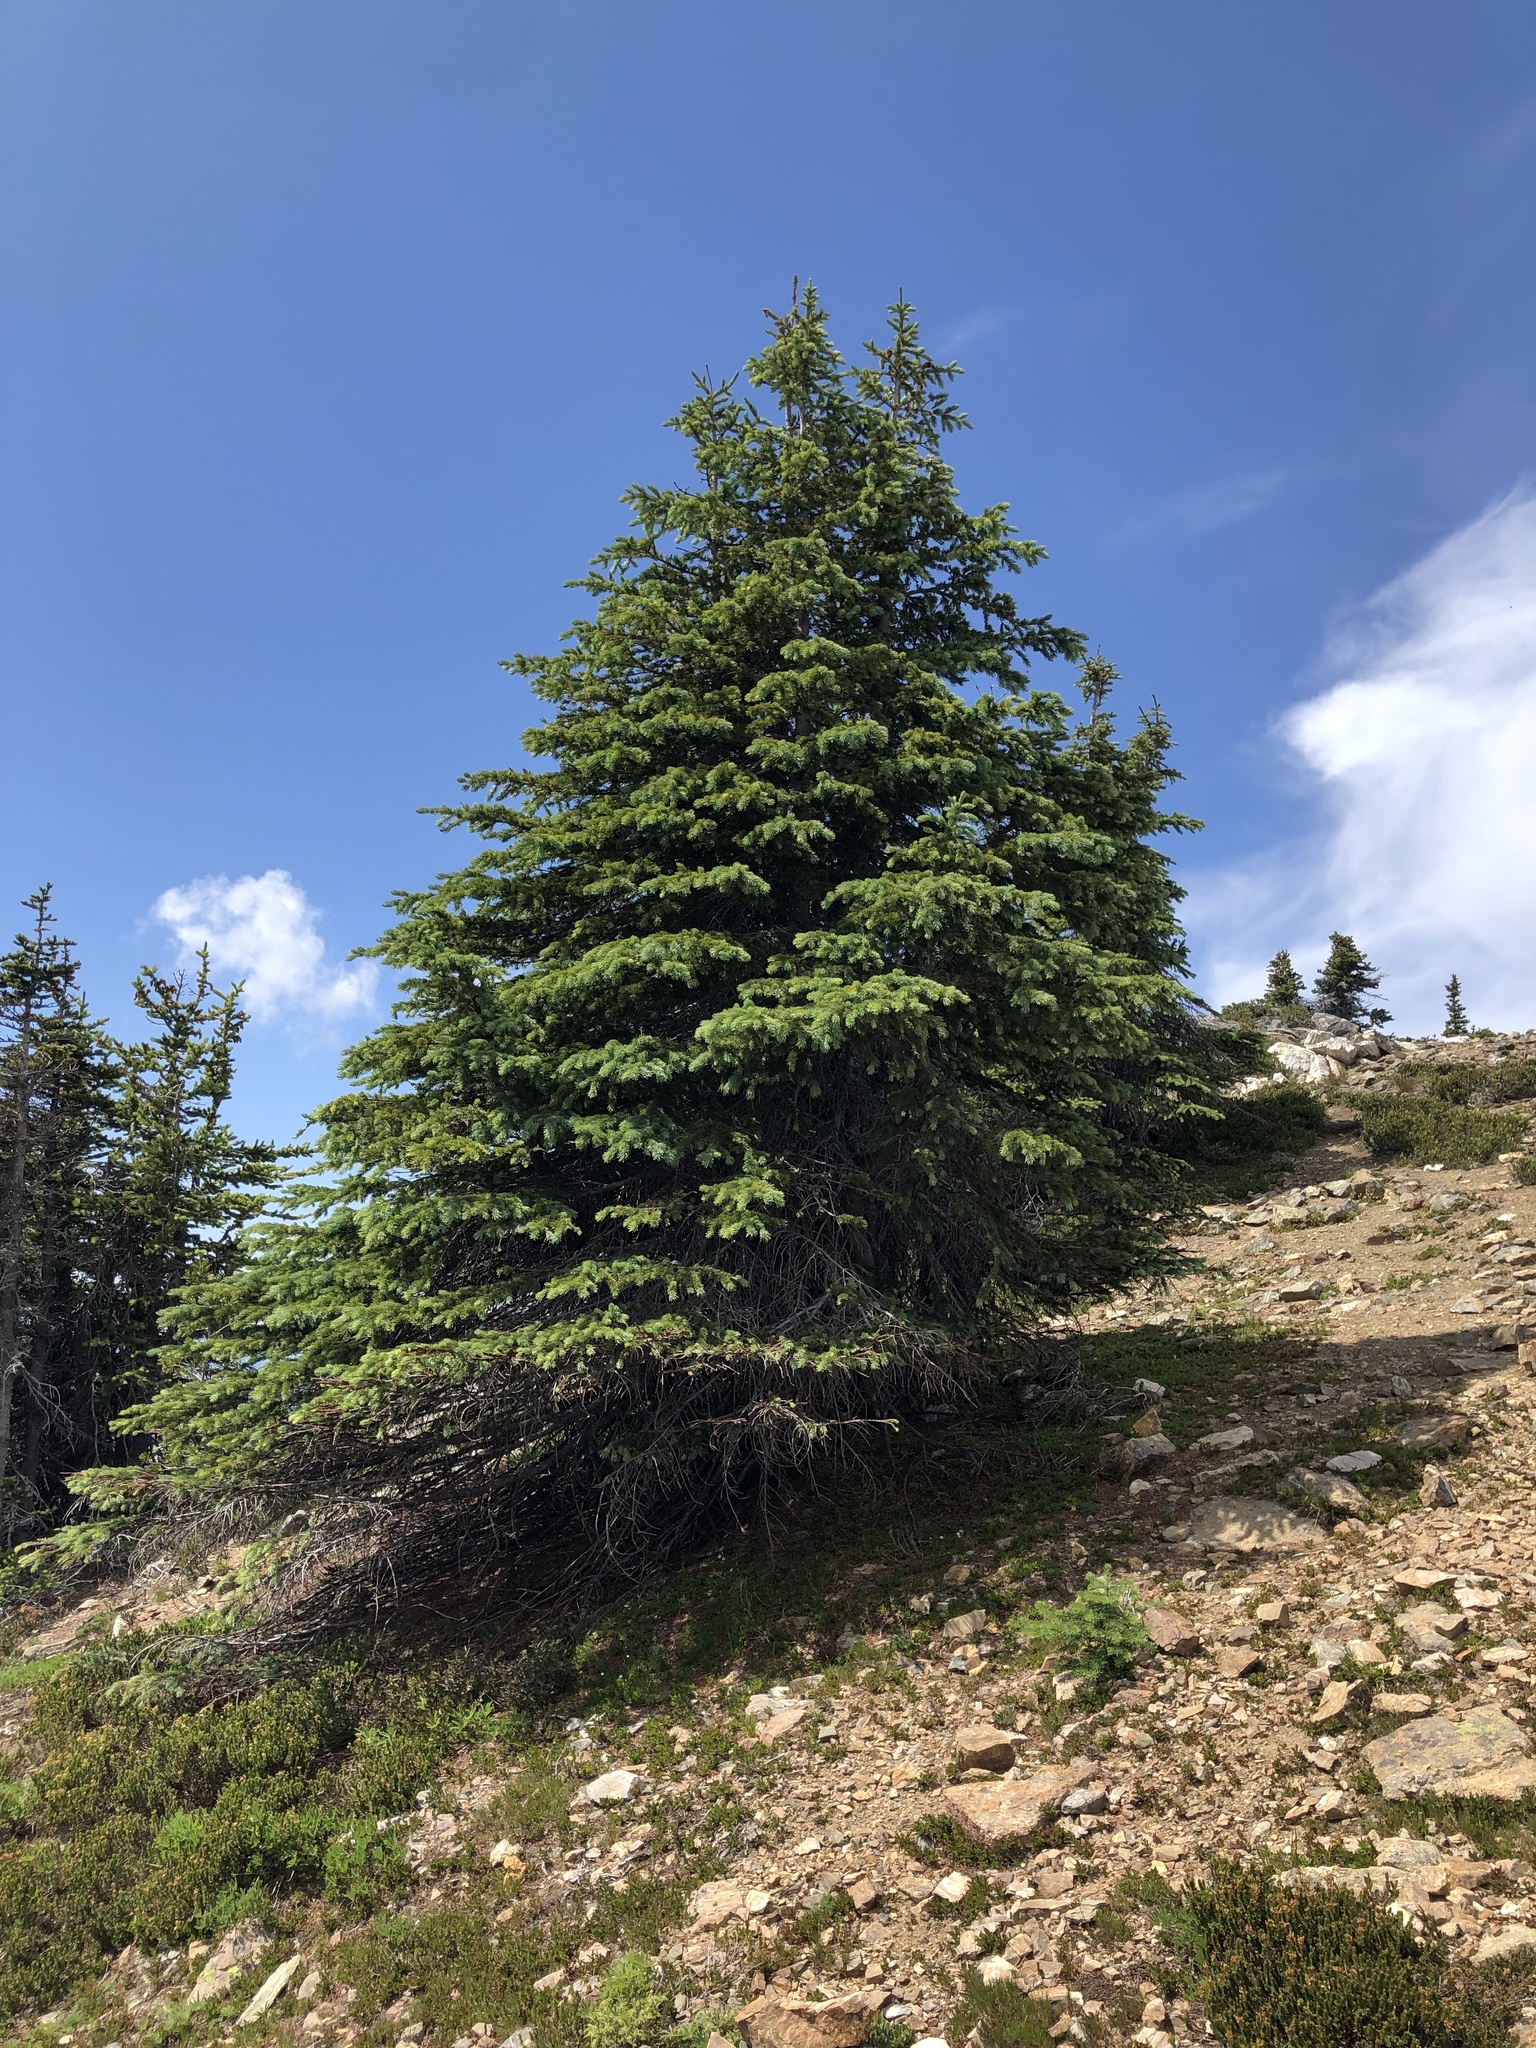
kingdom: Plantae
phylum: Tracheophyta
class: Pinopsida
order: Pinales
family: Pinaceae
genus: Picea
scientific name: Picea engelmannii
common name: Engelmann spruce
